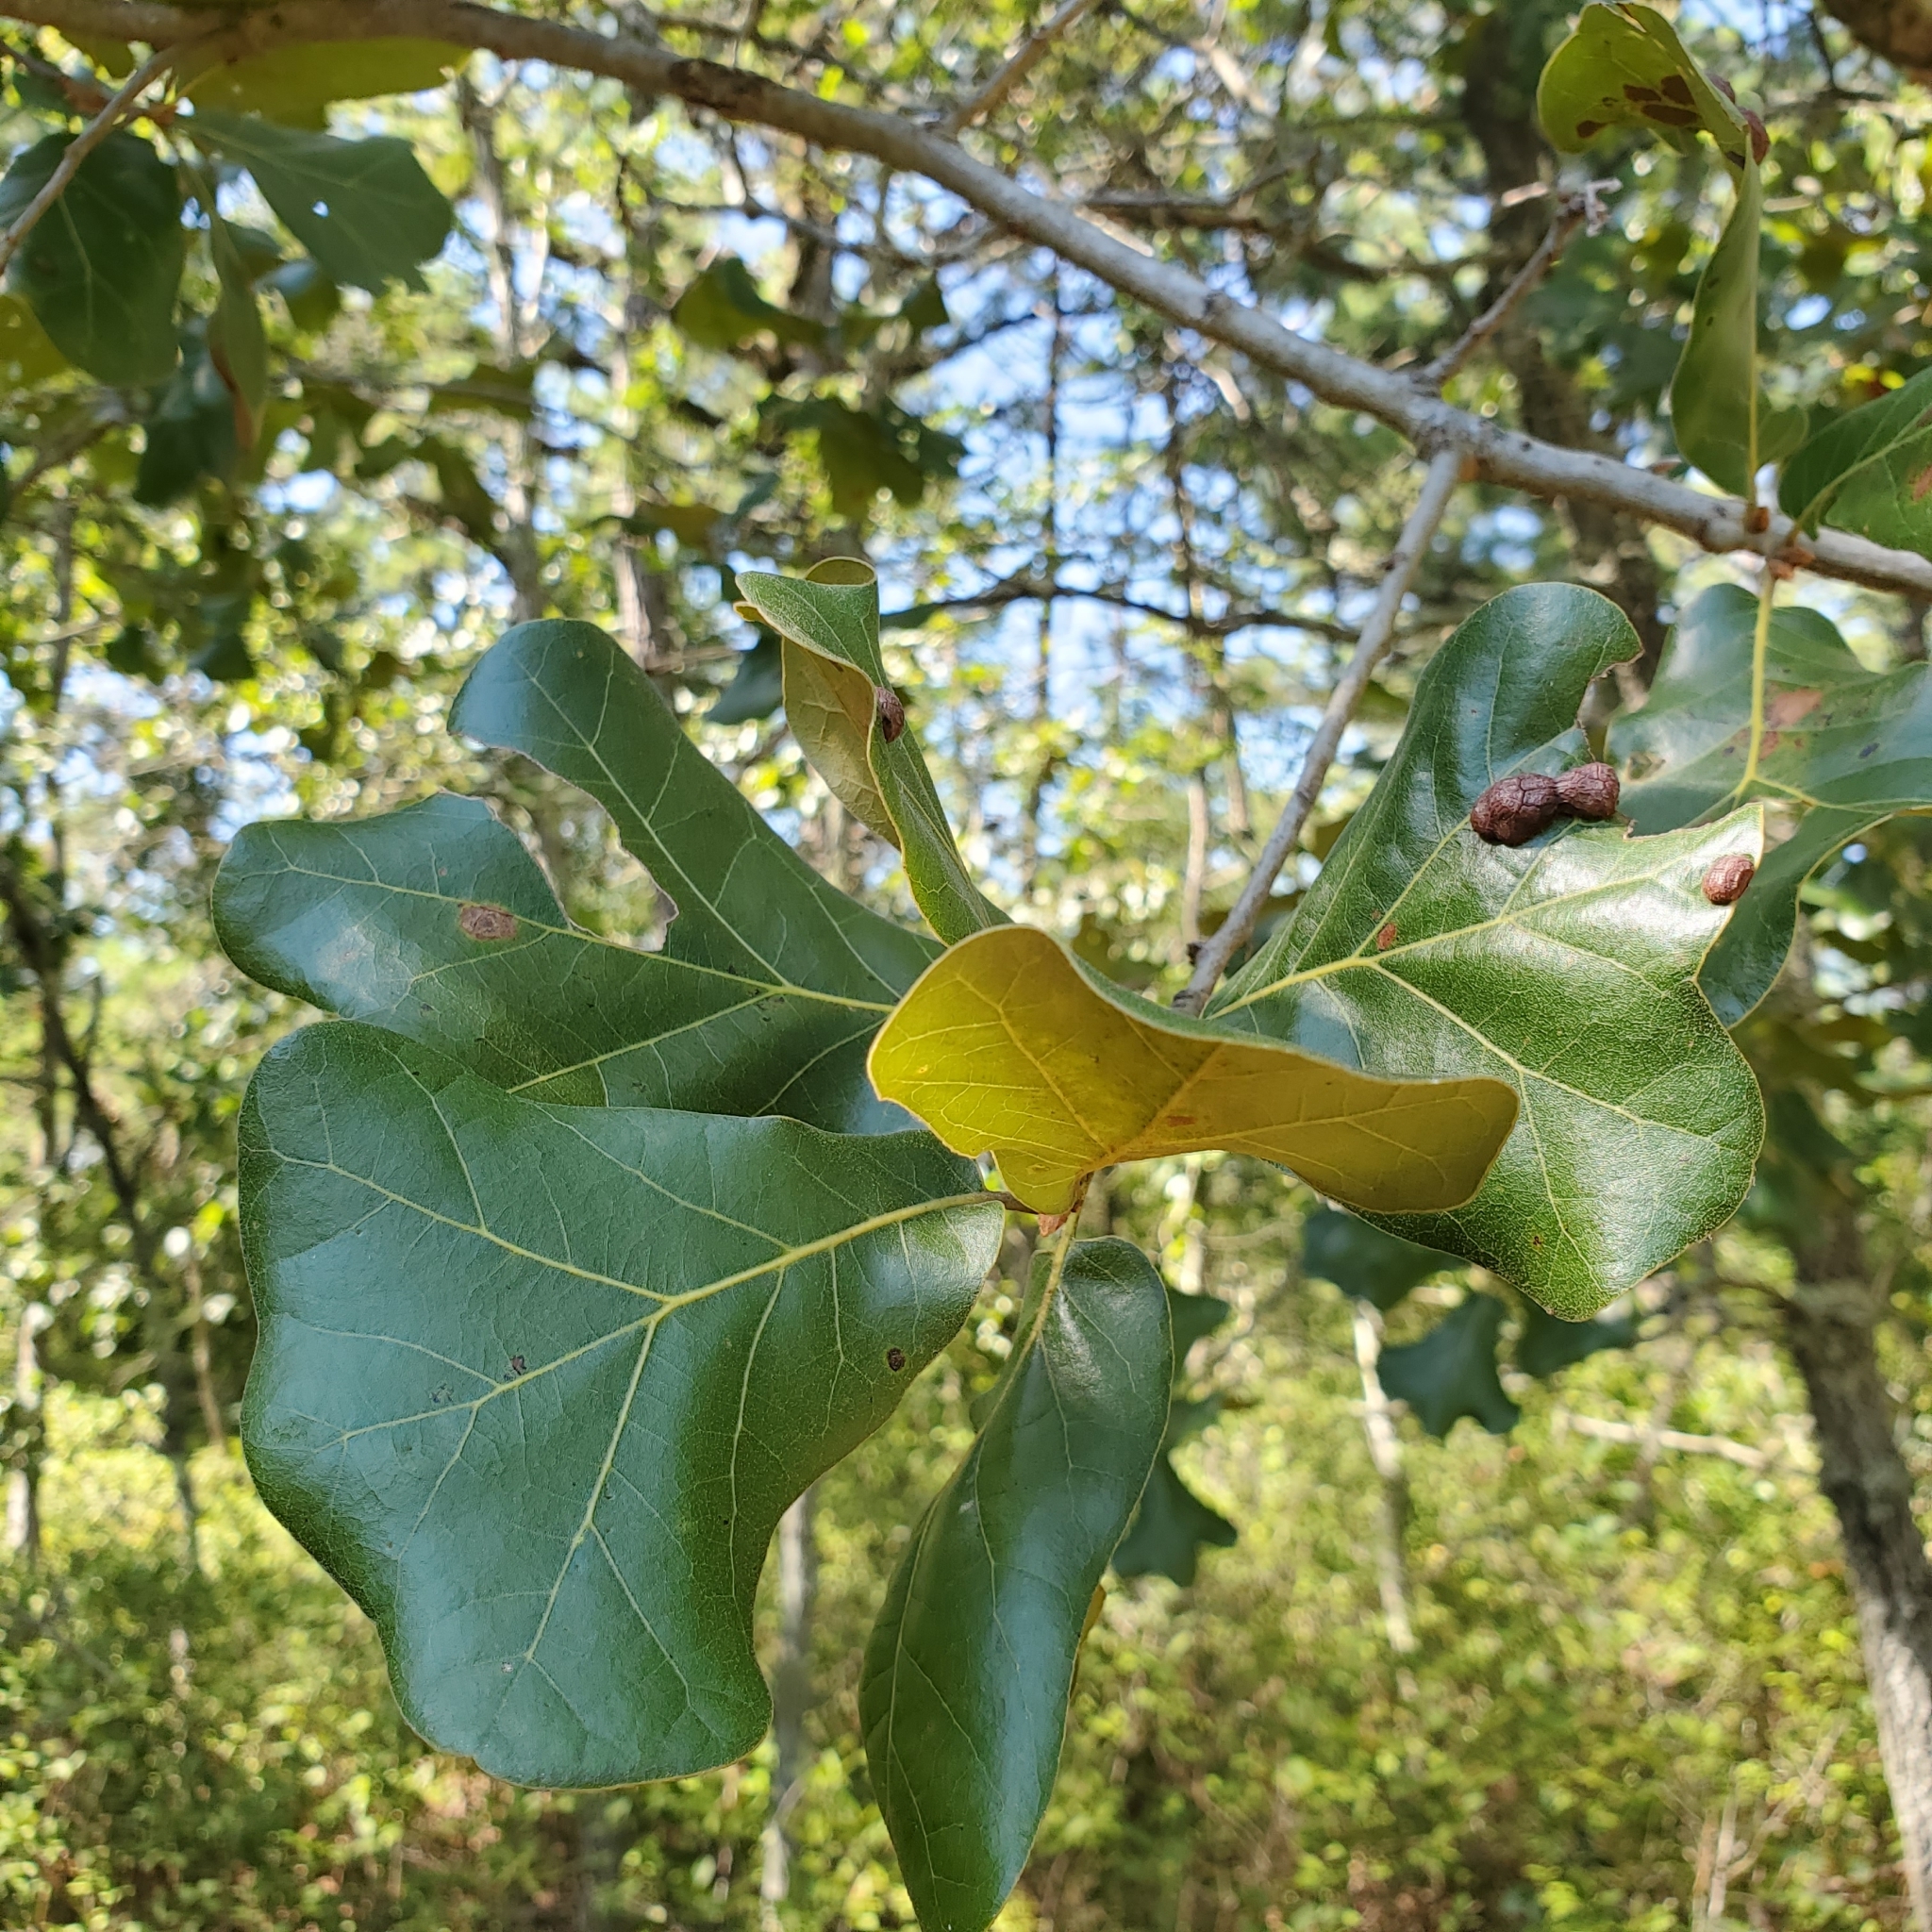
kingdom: Plantae
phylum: Tracheophyta
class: Magnoliopsida
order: Fagales
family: Fagaceae
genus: Quercus
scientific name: Quercus marilandica
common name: Blackjack oak
